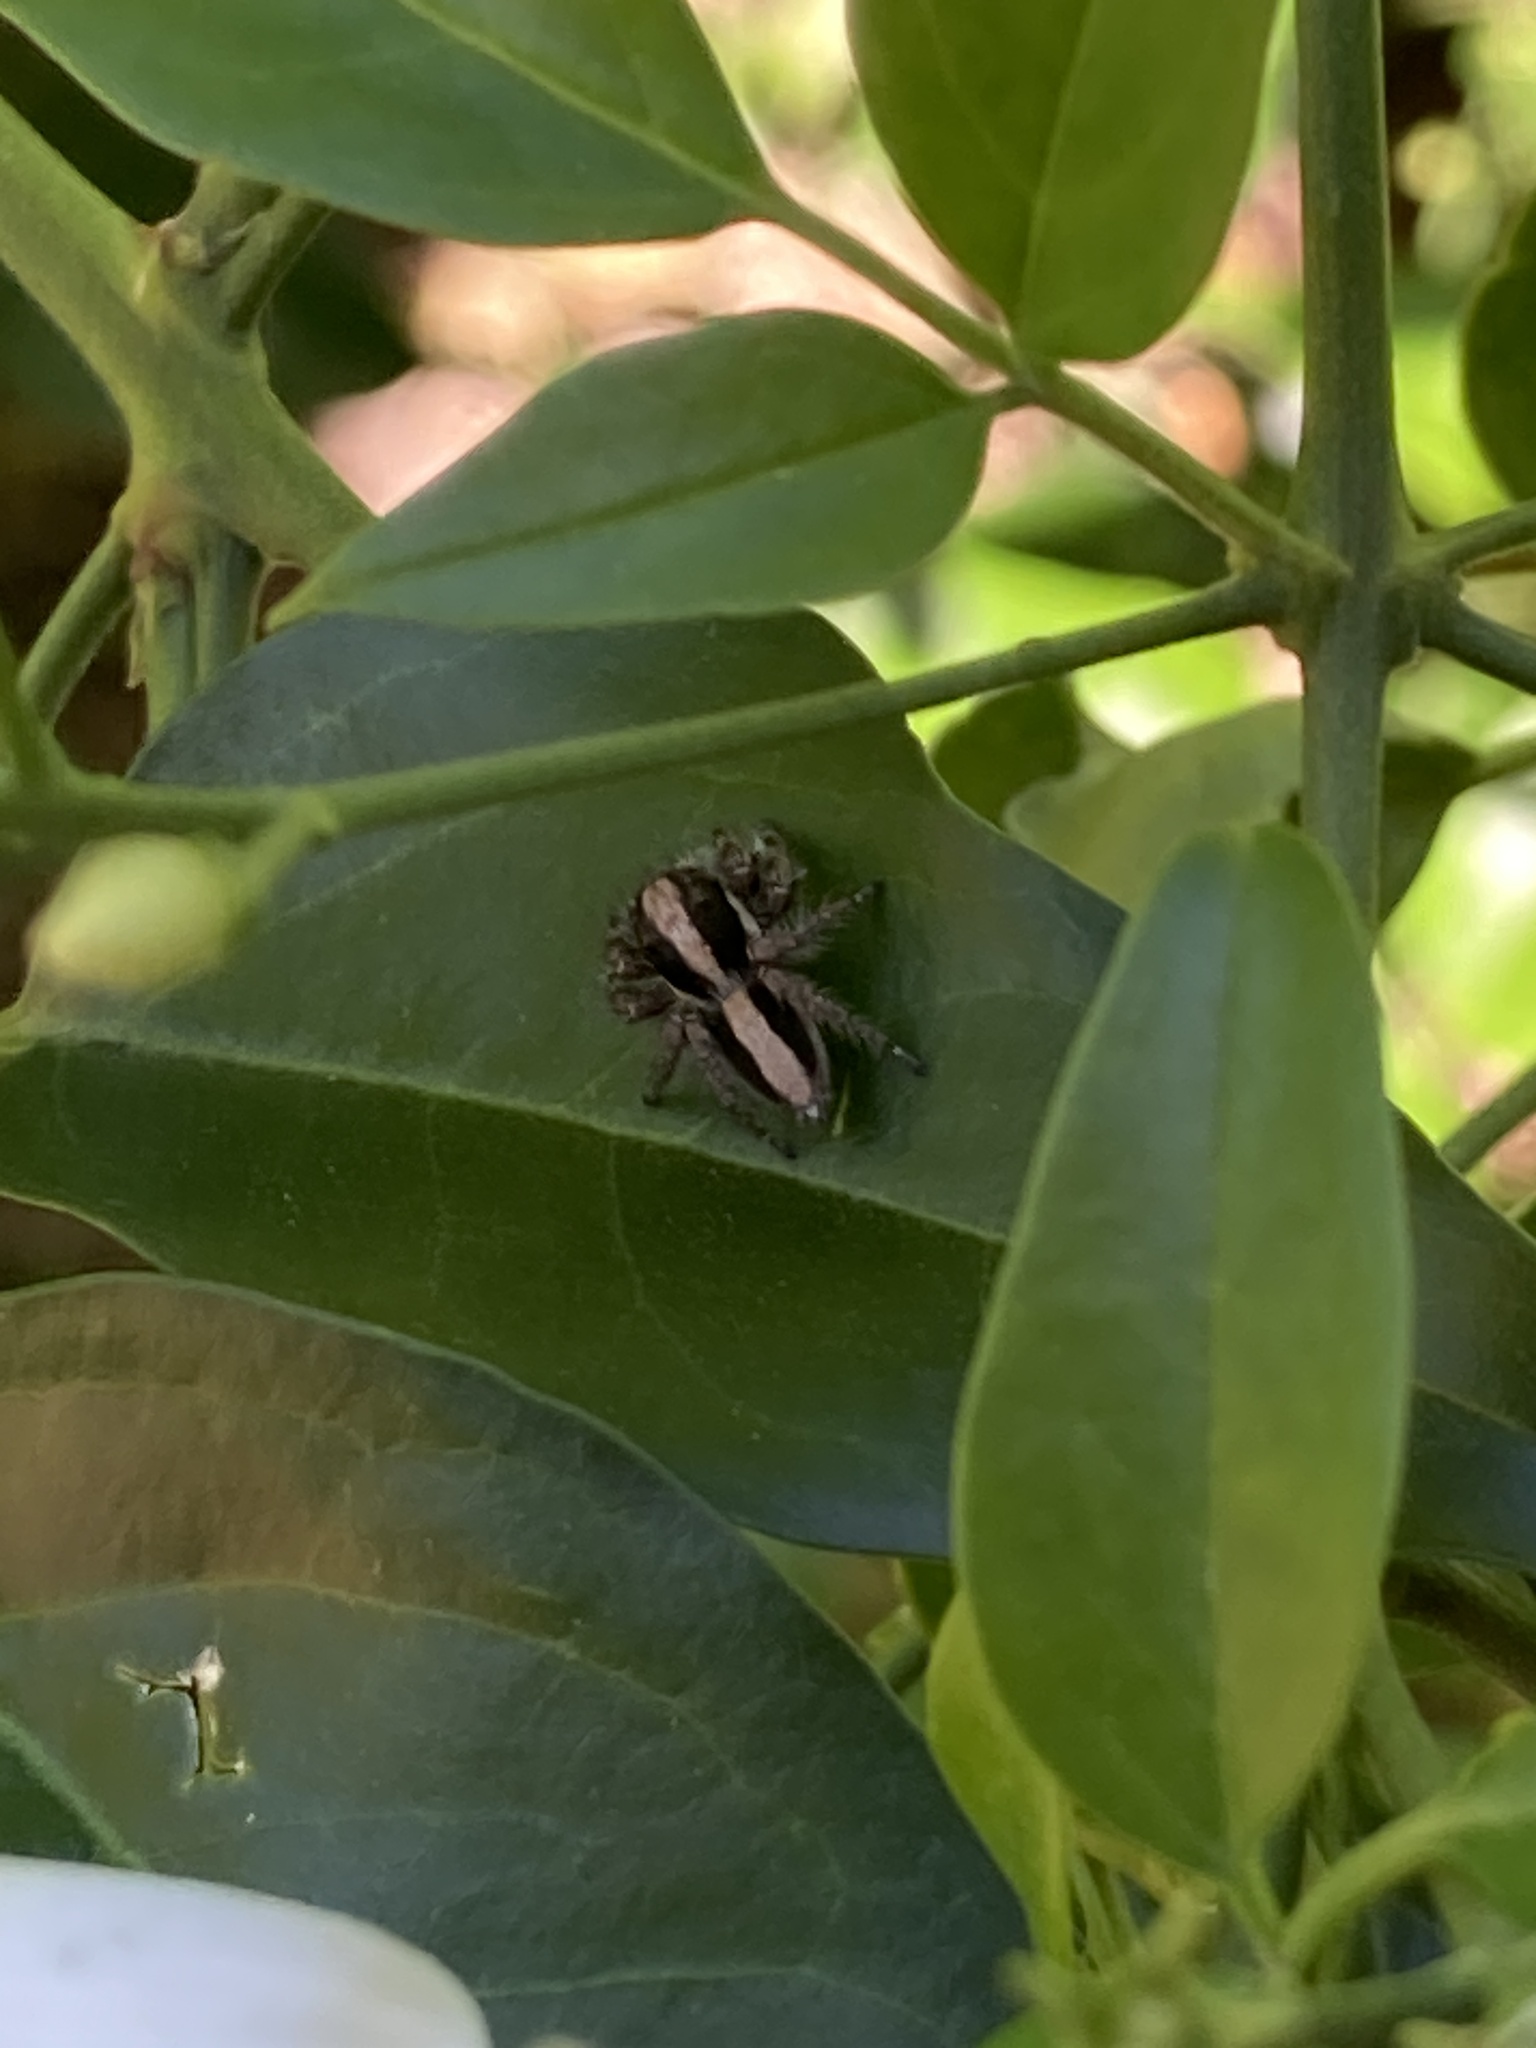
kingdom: Animalia
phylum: Arthropoda
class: Arachnida
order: Araneae
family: Salticidae
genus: Megafreya
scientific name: Megafreya sutrix
